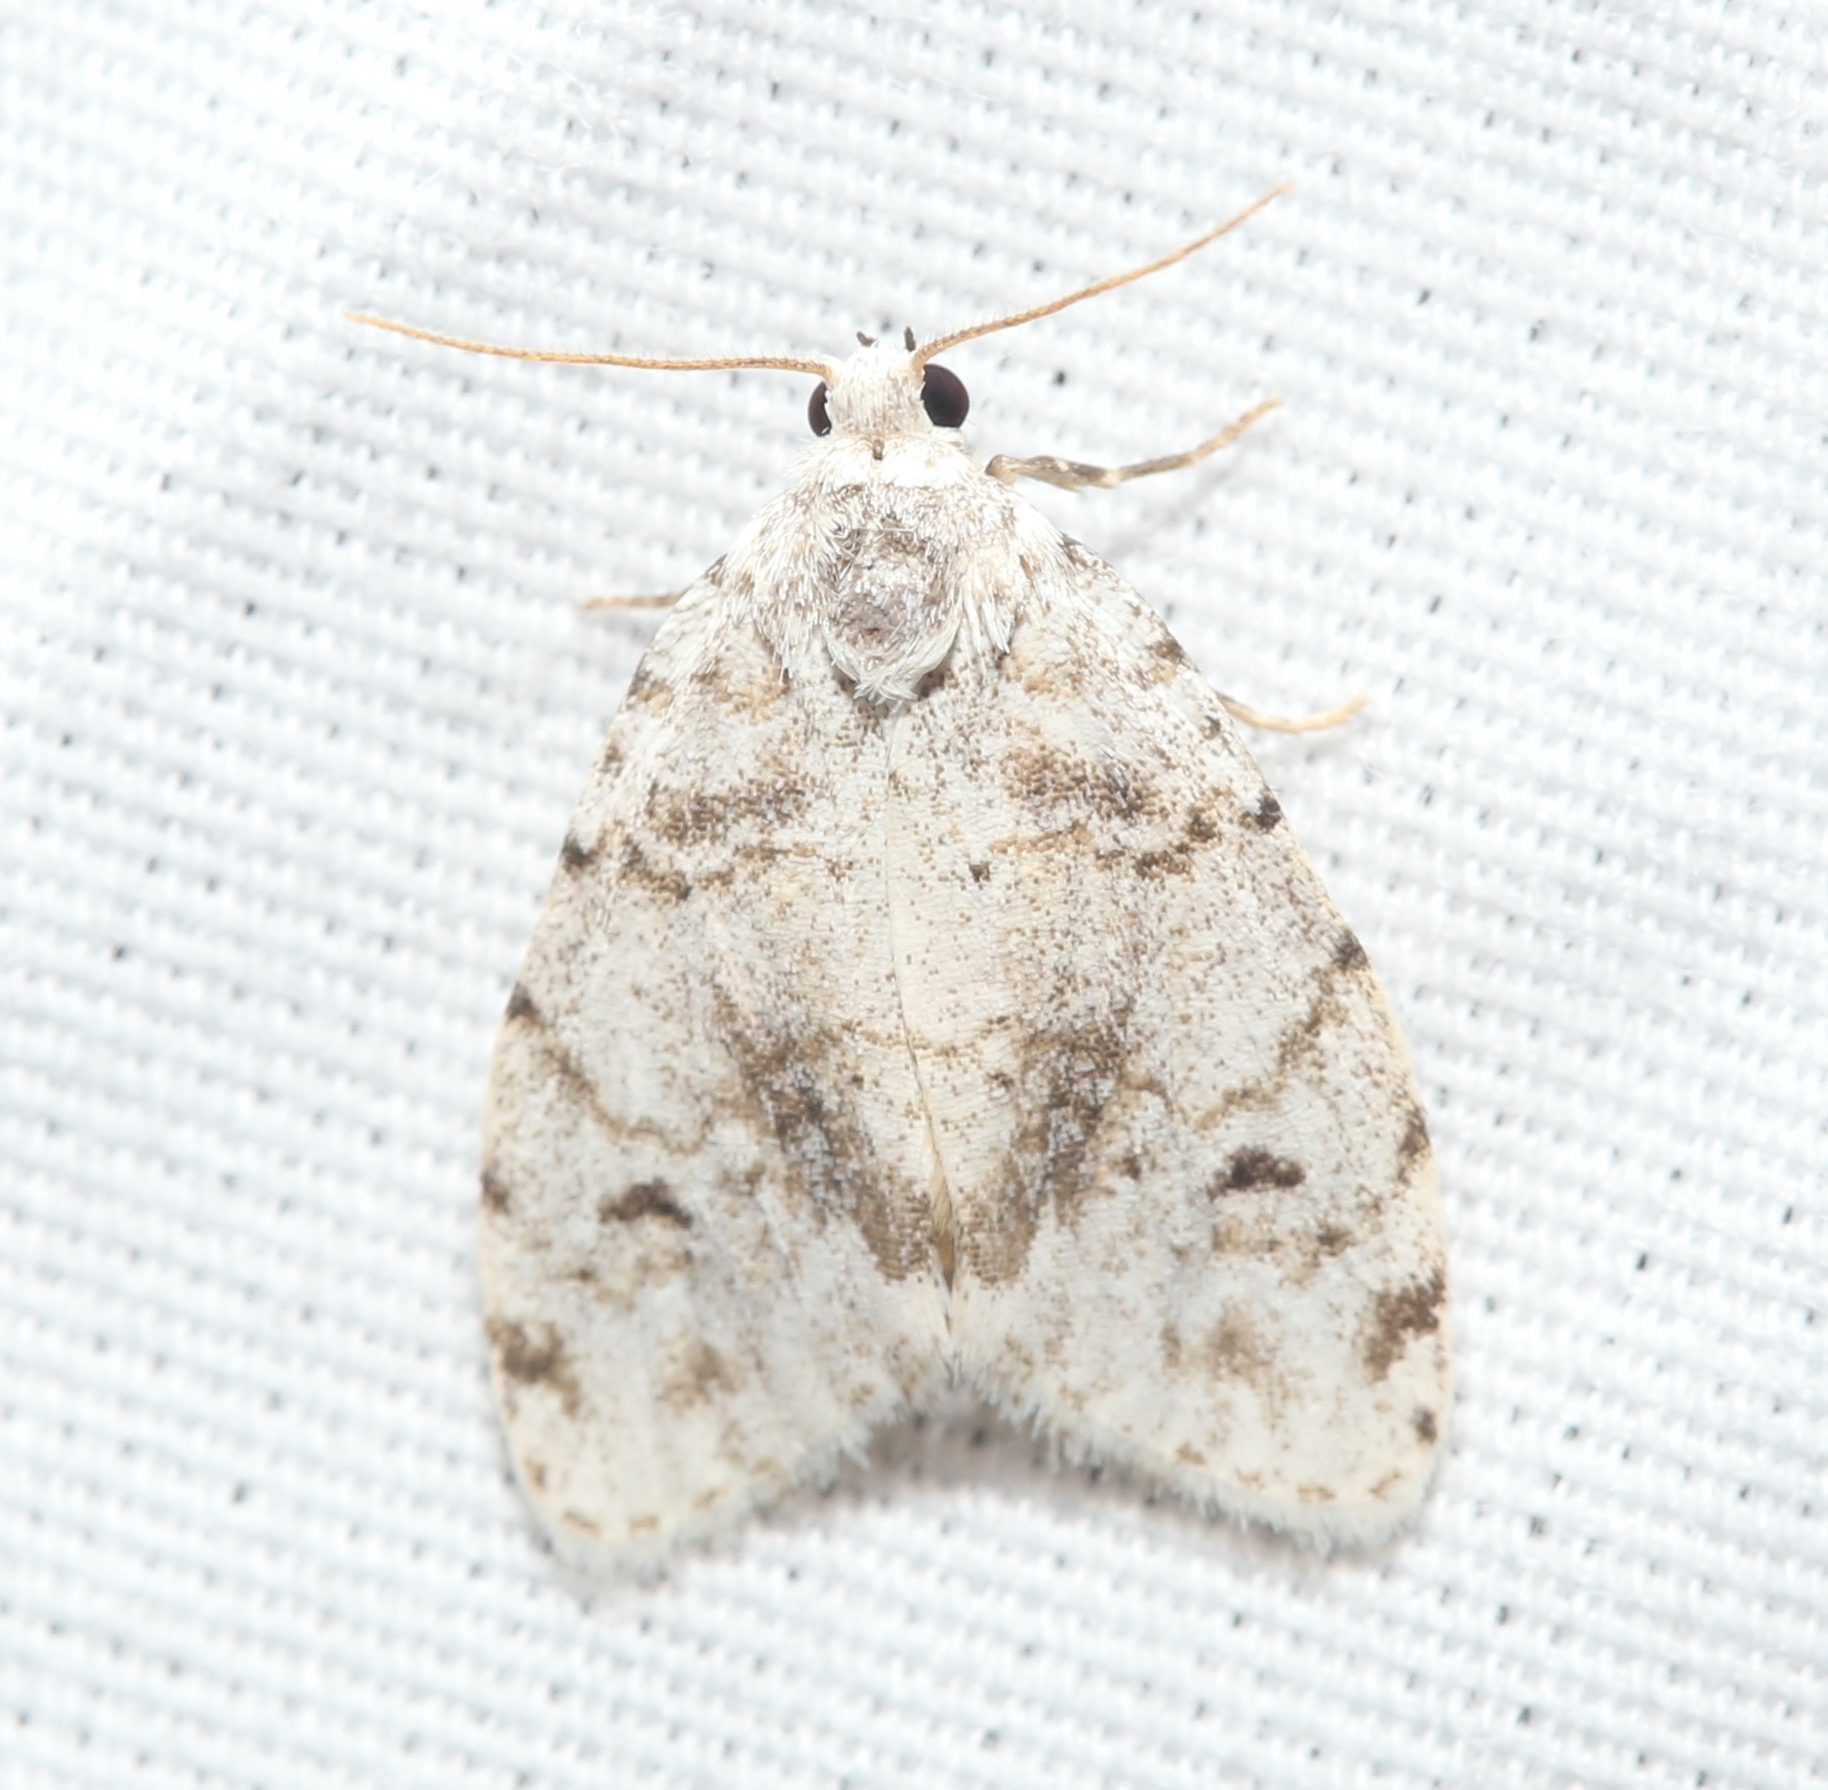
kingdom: Animalia
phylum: Arthropoda
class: Insecta
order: Lepidoptera
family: Erebidae
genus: Clemensia
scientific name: Clemensia albata
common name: Little white lichen moth
